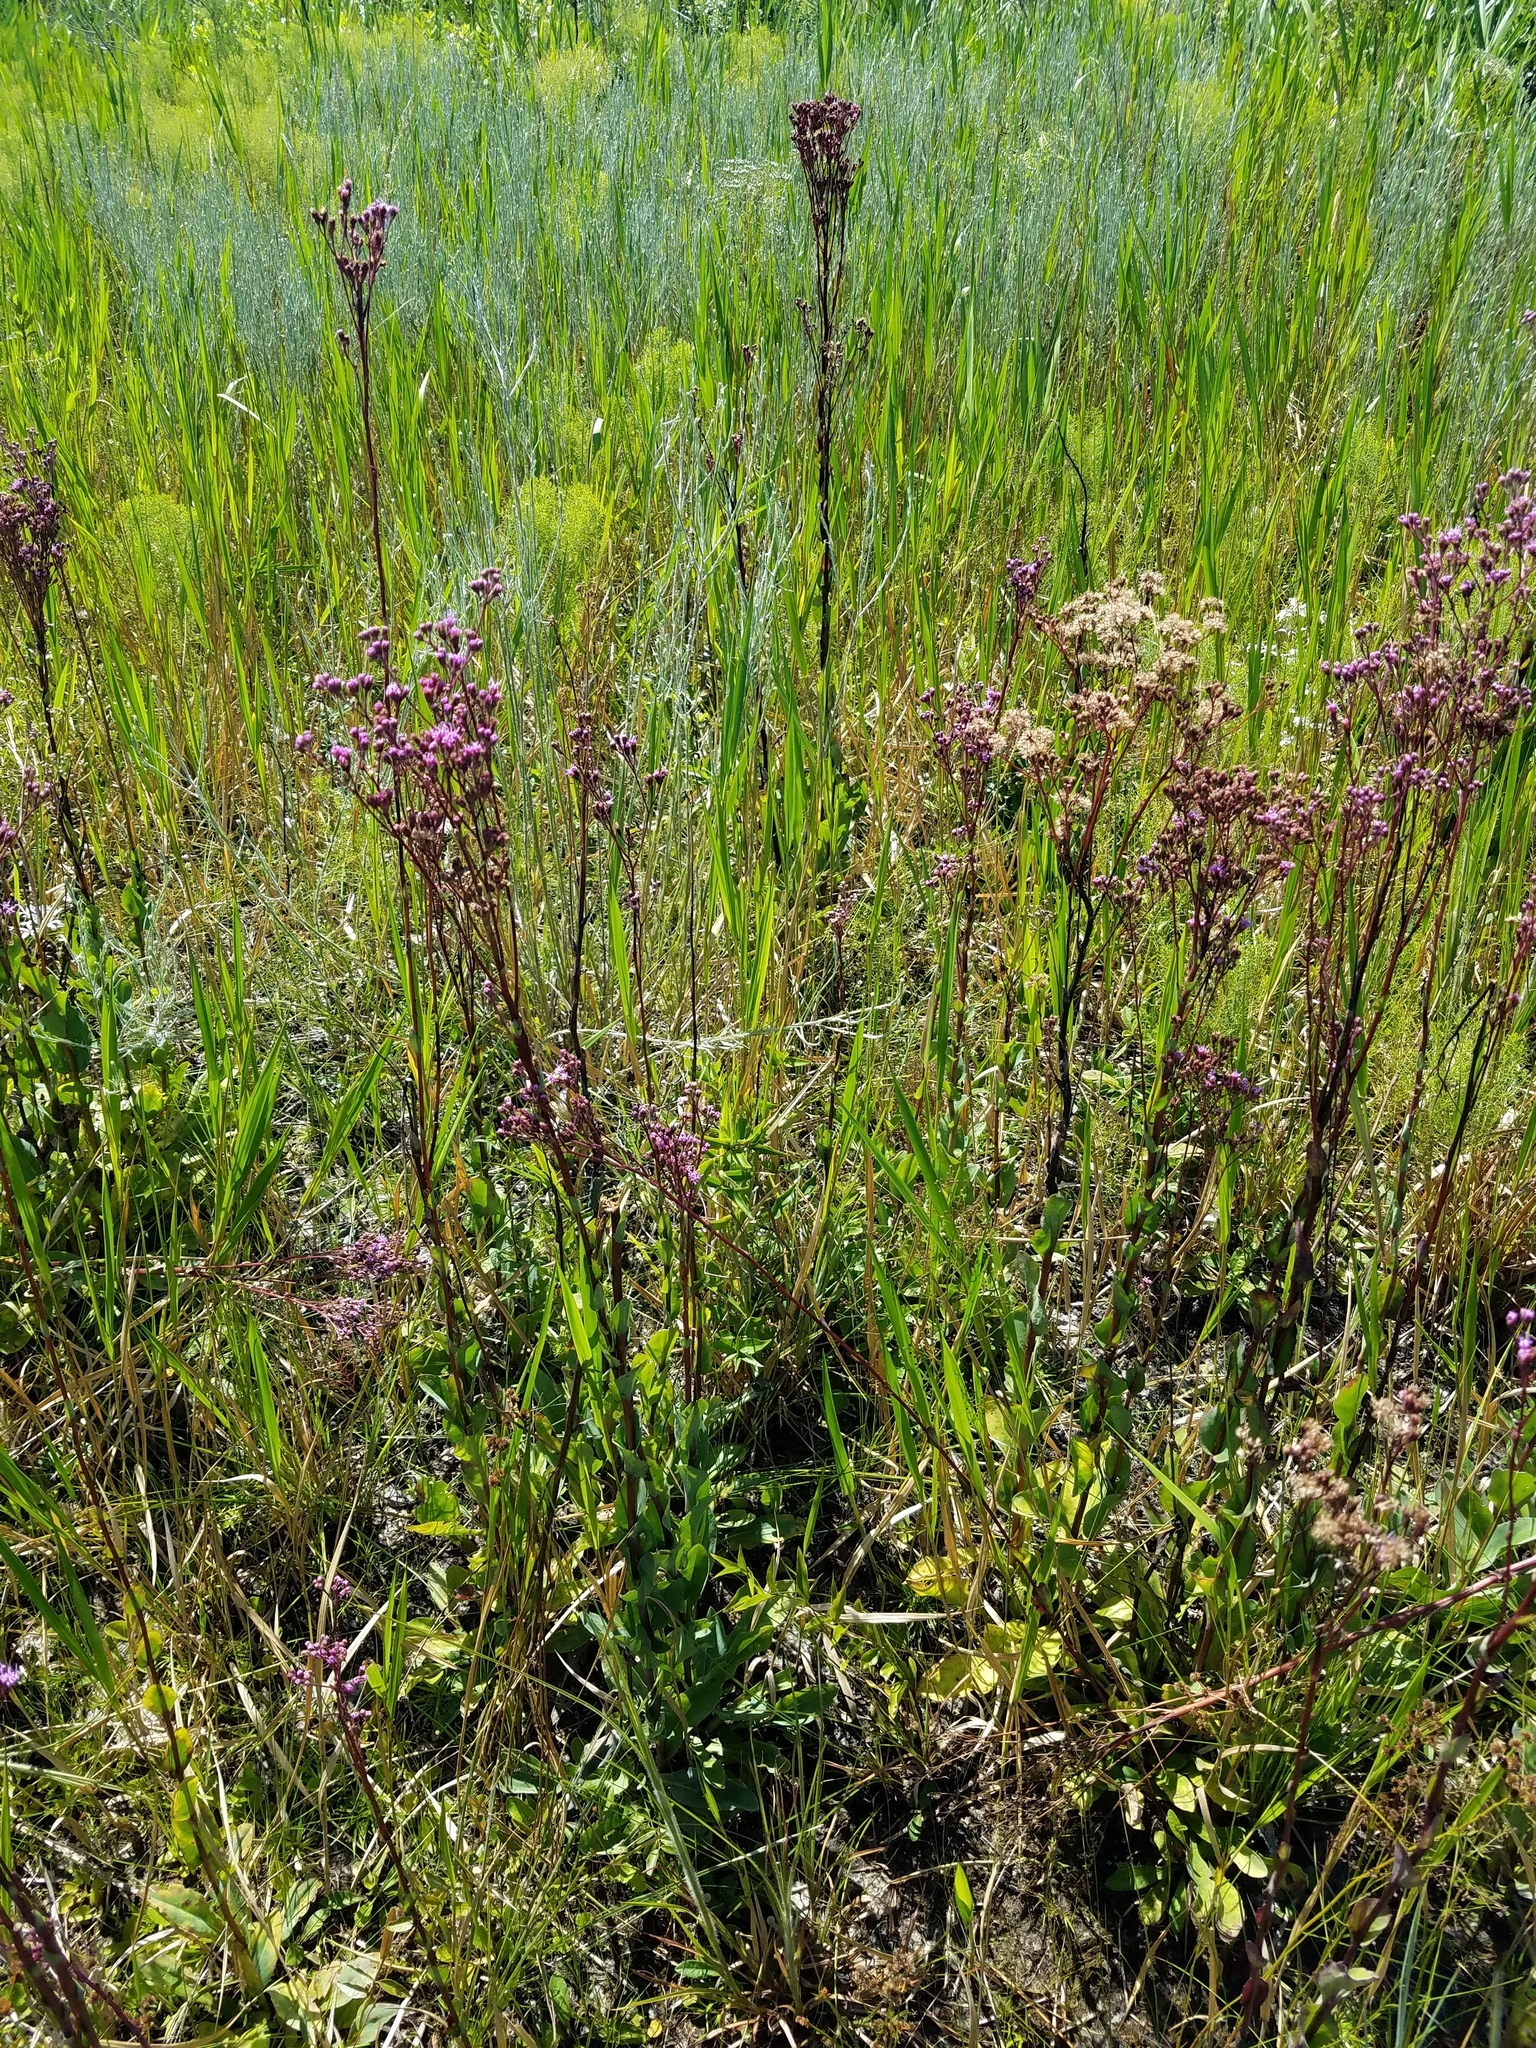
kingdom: Plantae
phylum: Tracheophyta
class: Magnoliopsida
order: Asterales
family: Asteraceae
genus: Carphephorus
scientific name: Carphephorus odoratissimus
